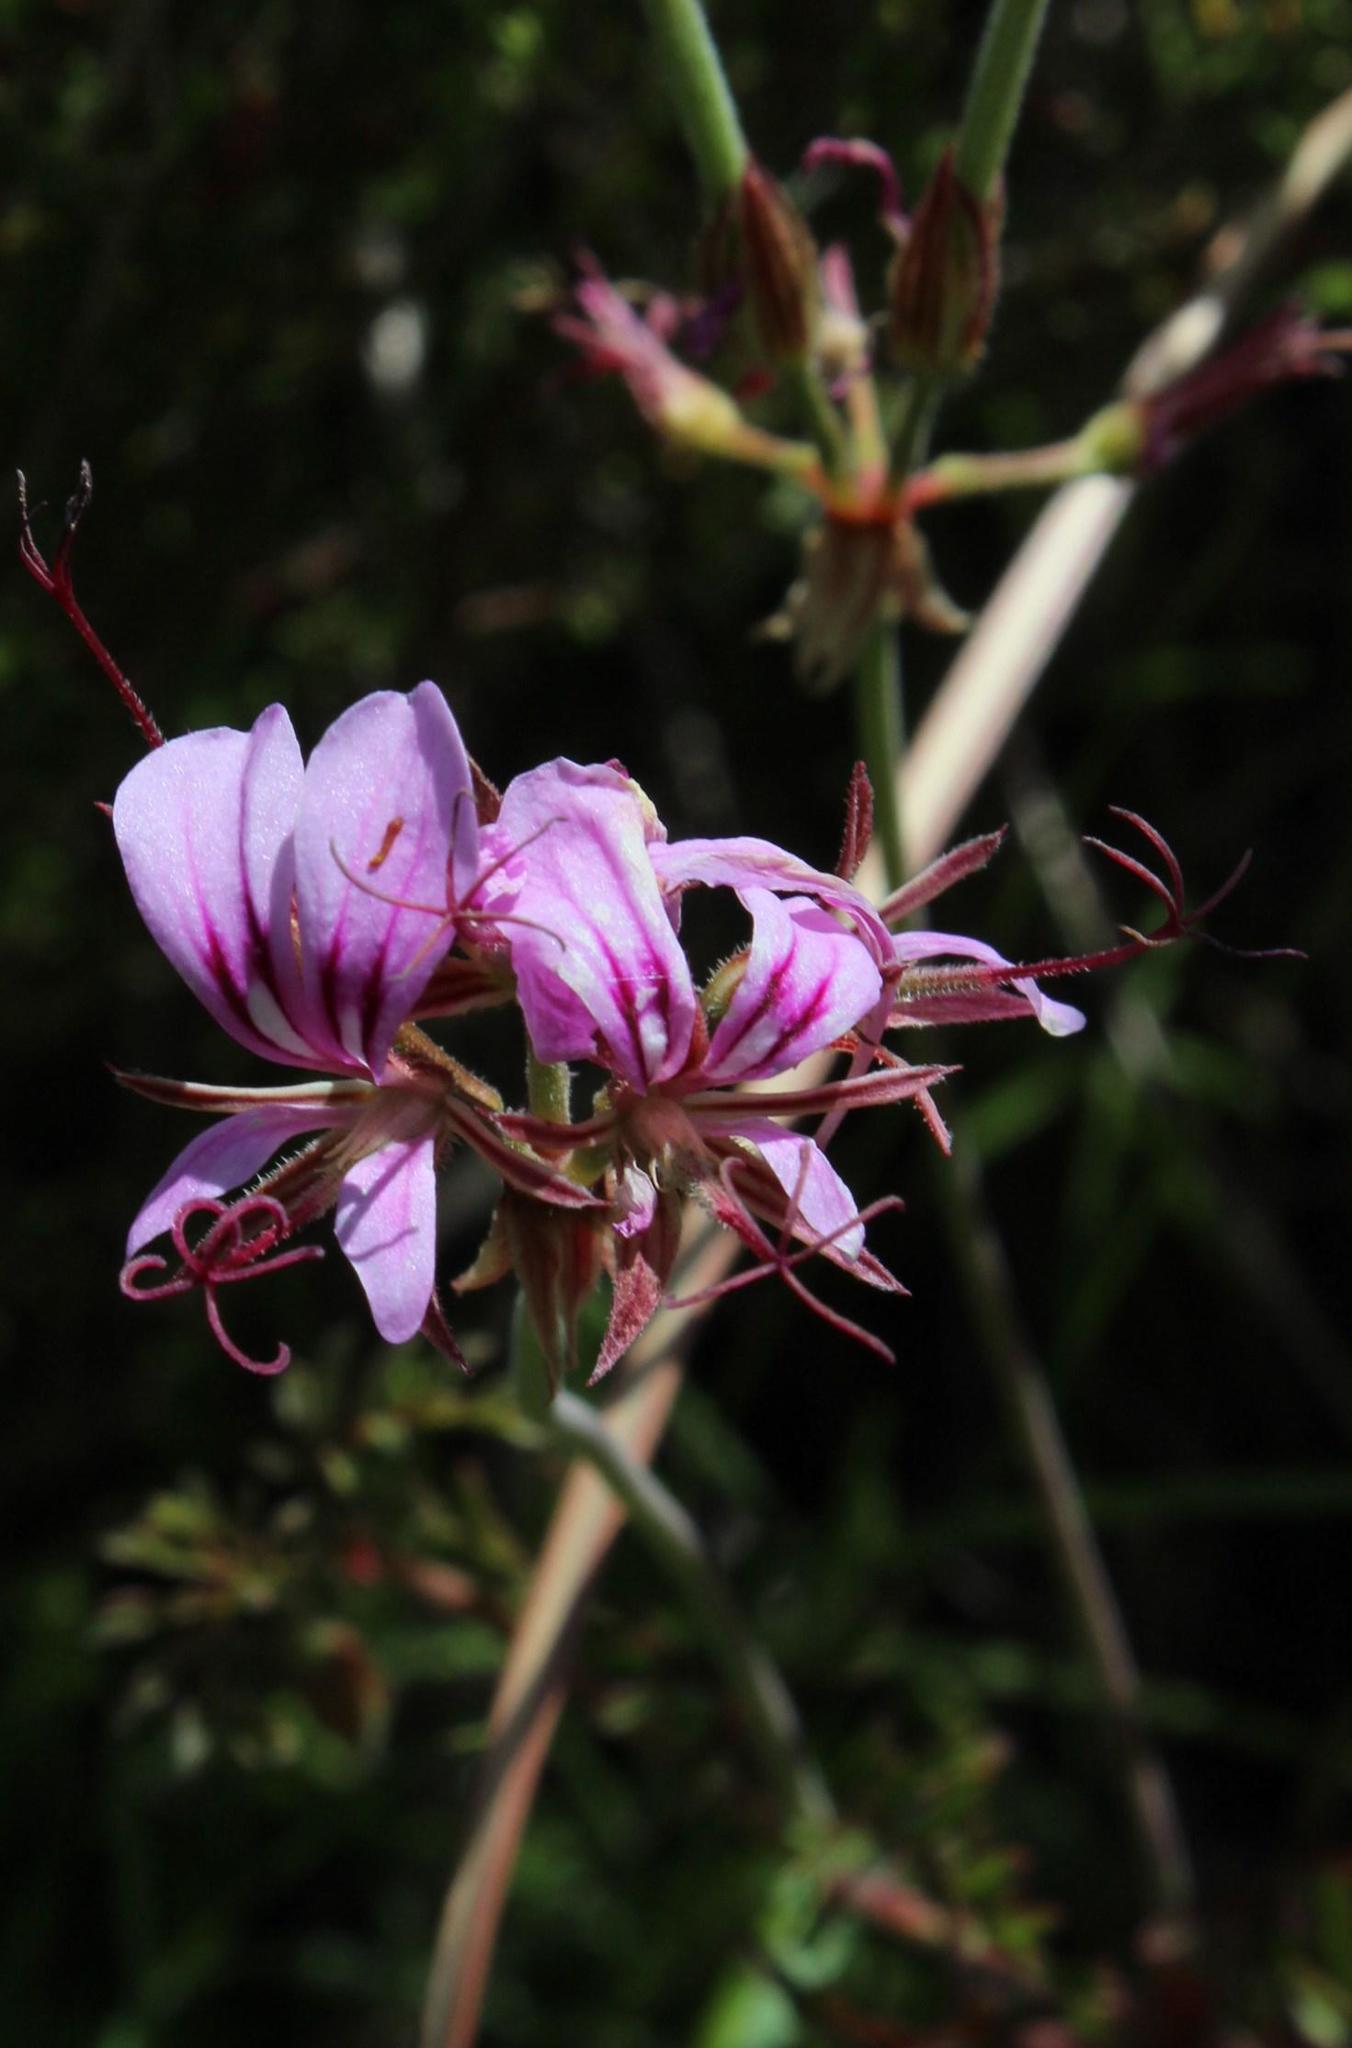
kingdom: Plantae
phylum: Tracheophyta
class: Magnoliopsida
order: Geraniales
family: Geraniaceae
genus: Pelargonium
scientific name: Pelargonium multicaule
